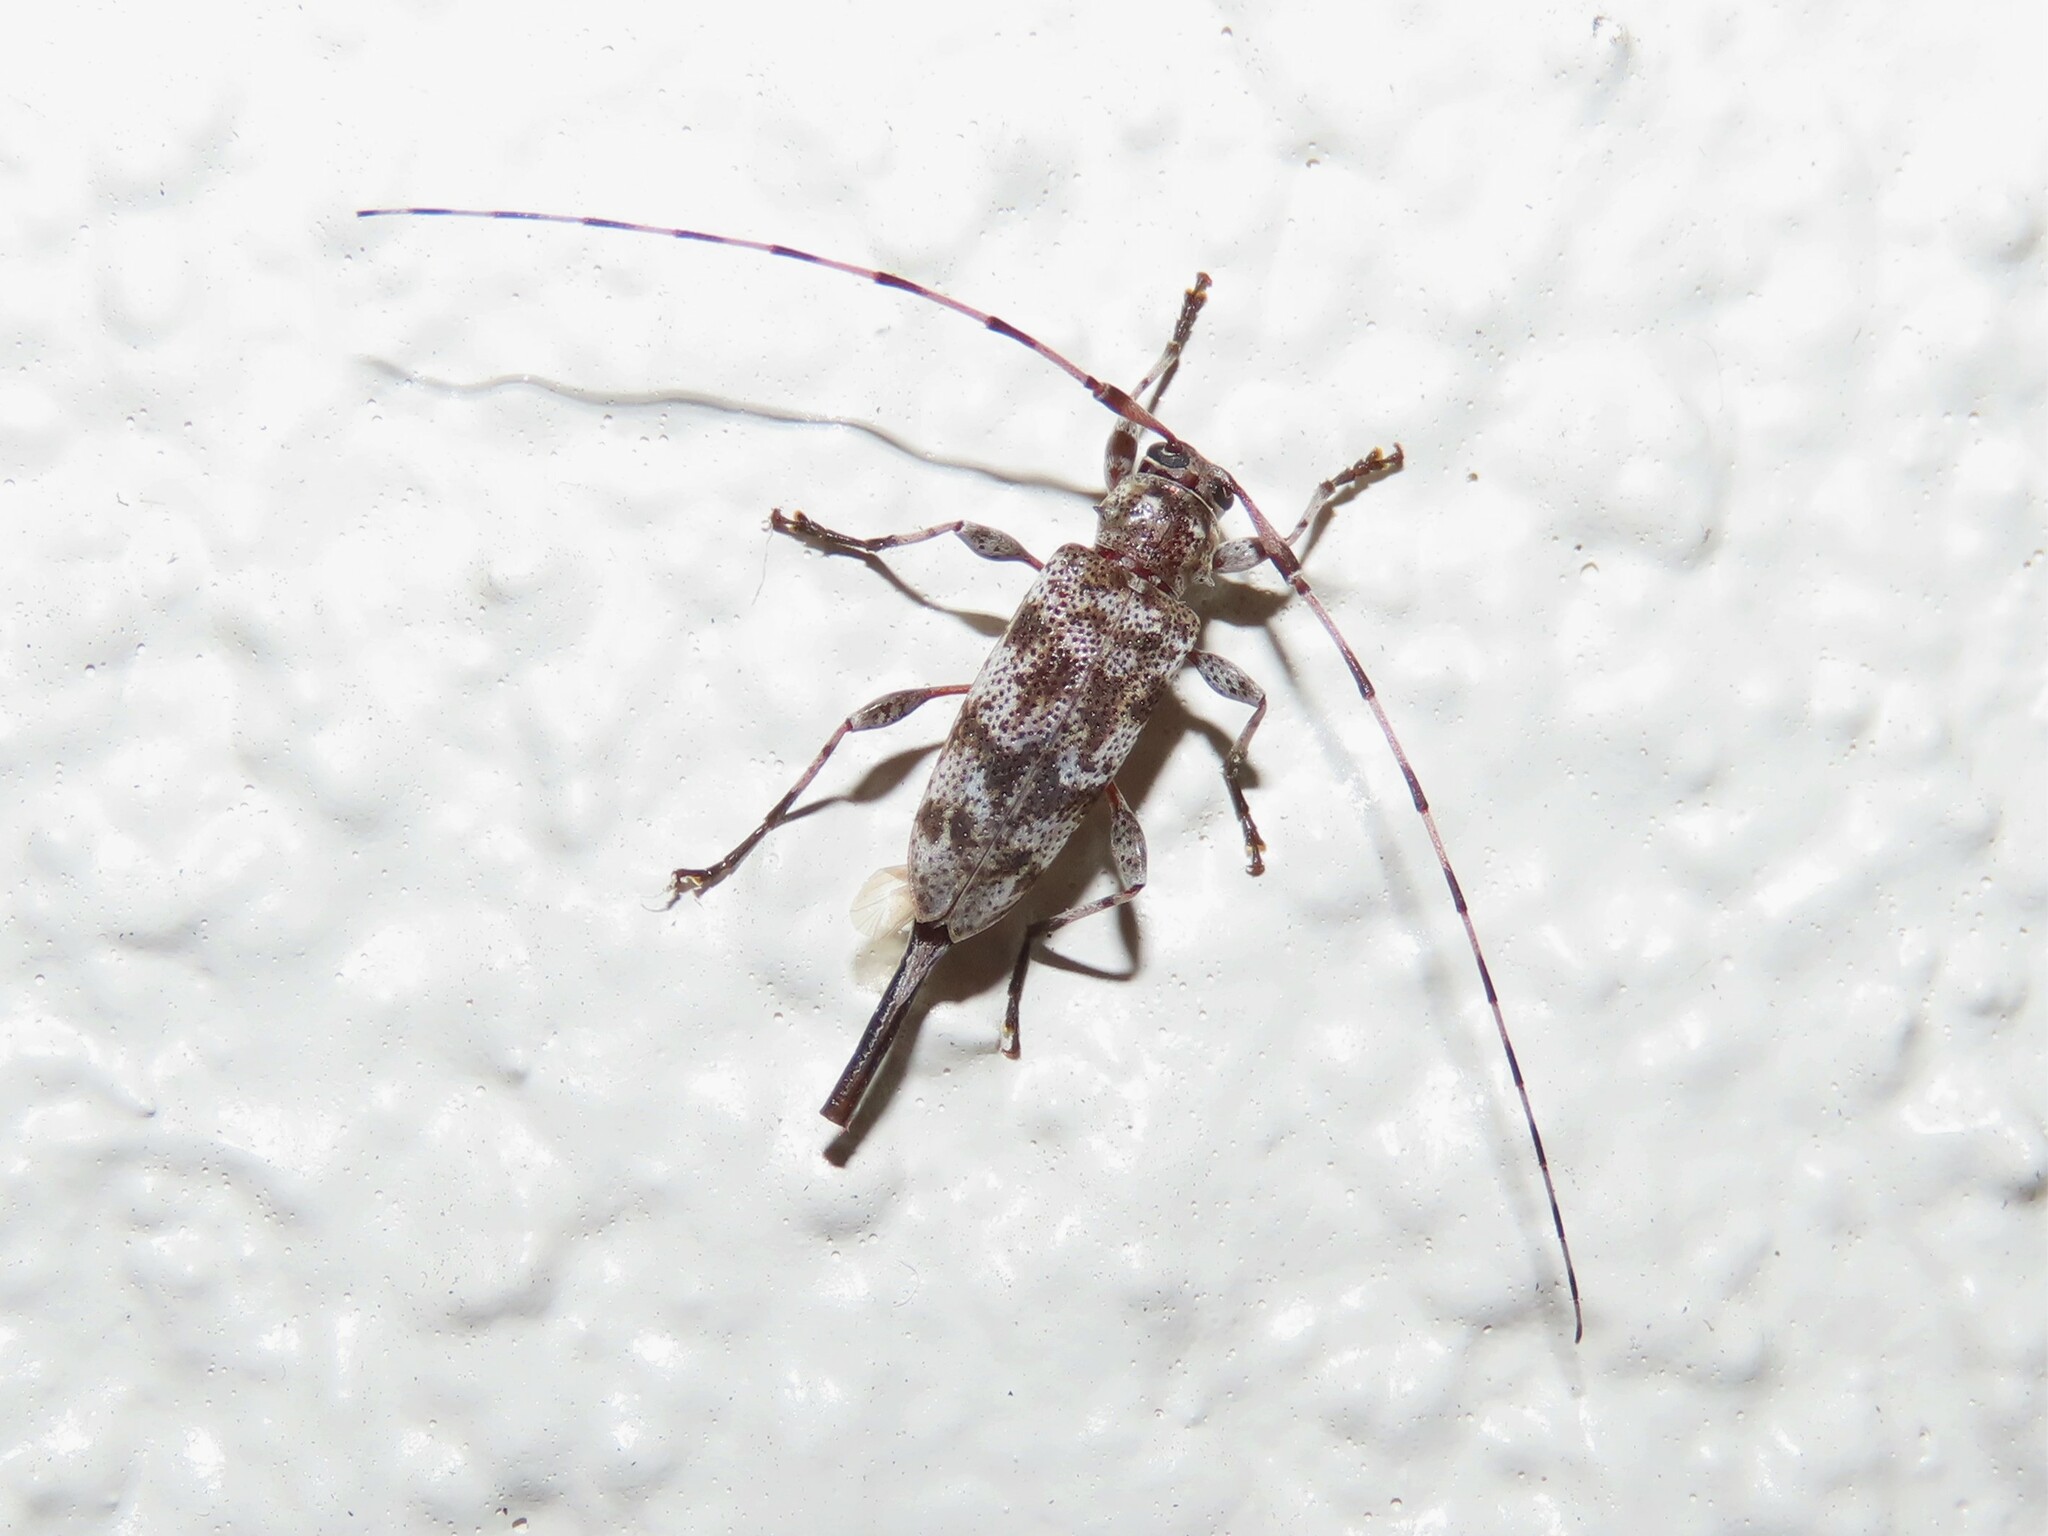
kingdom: Animalia
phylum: Arthropoda
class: Insecta
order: Coleoptera
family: Cerambycidae
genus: Acanthocinus
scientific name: Acanthocinus obsoletus
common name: Roundheaded borer
